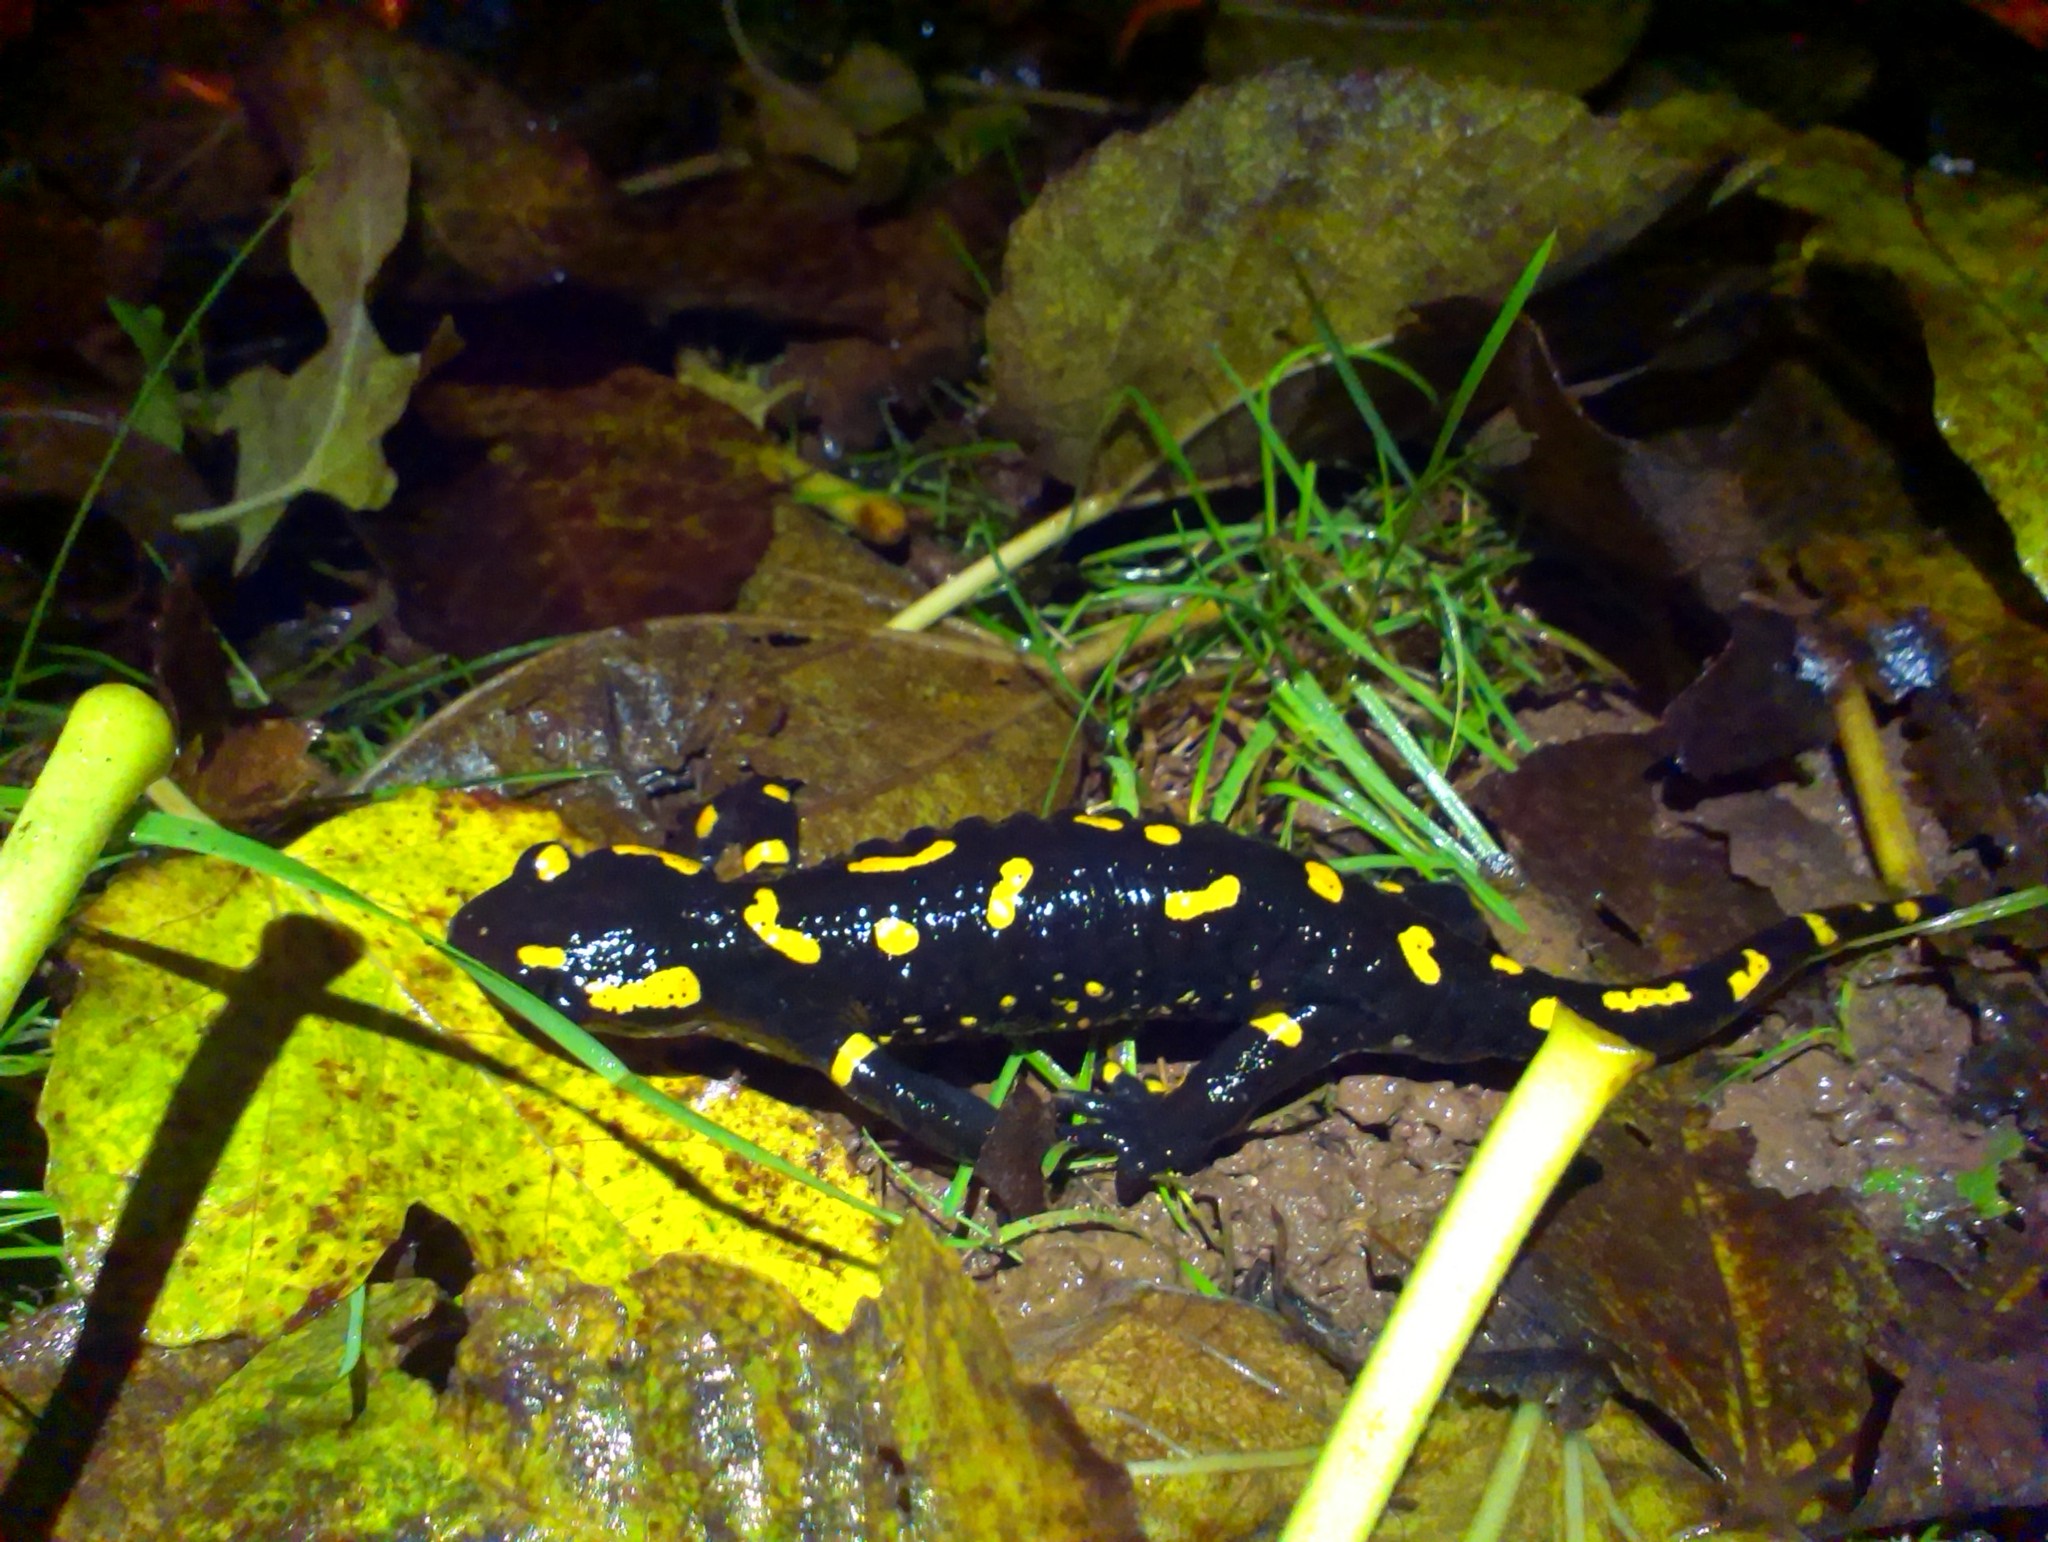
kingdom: Animalia
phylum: Chordata
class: Amphibia
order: Caudata
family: Salamandridae
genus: Salamandra
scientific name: Salamandra salamandra
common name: Fire salamander
